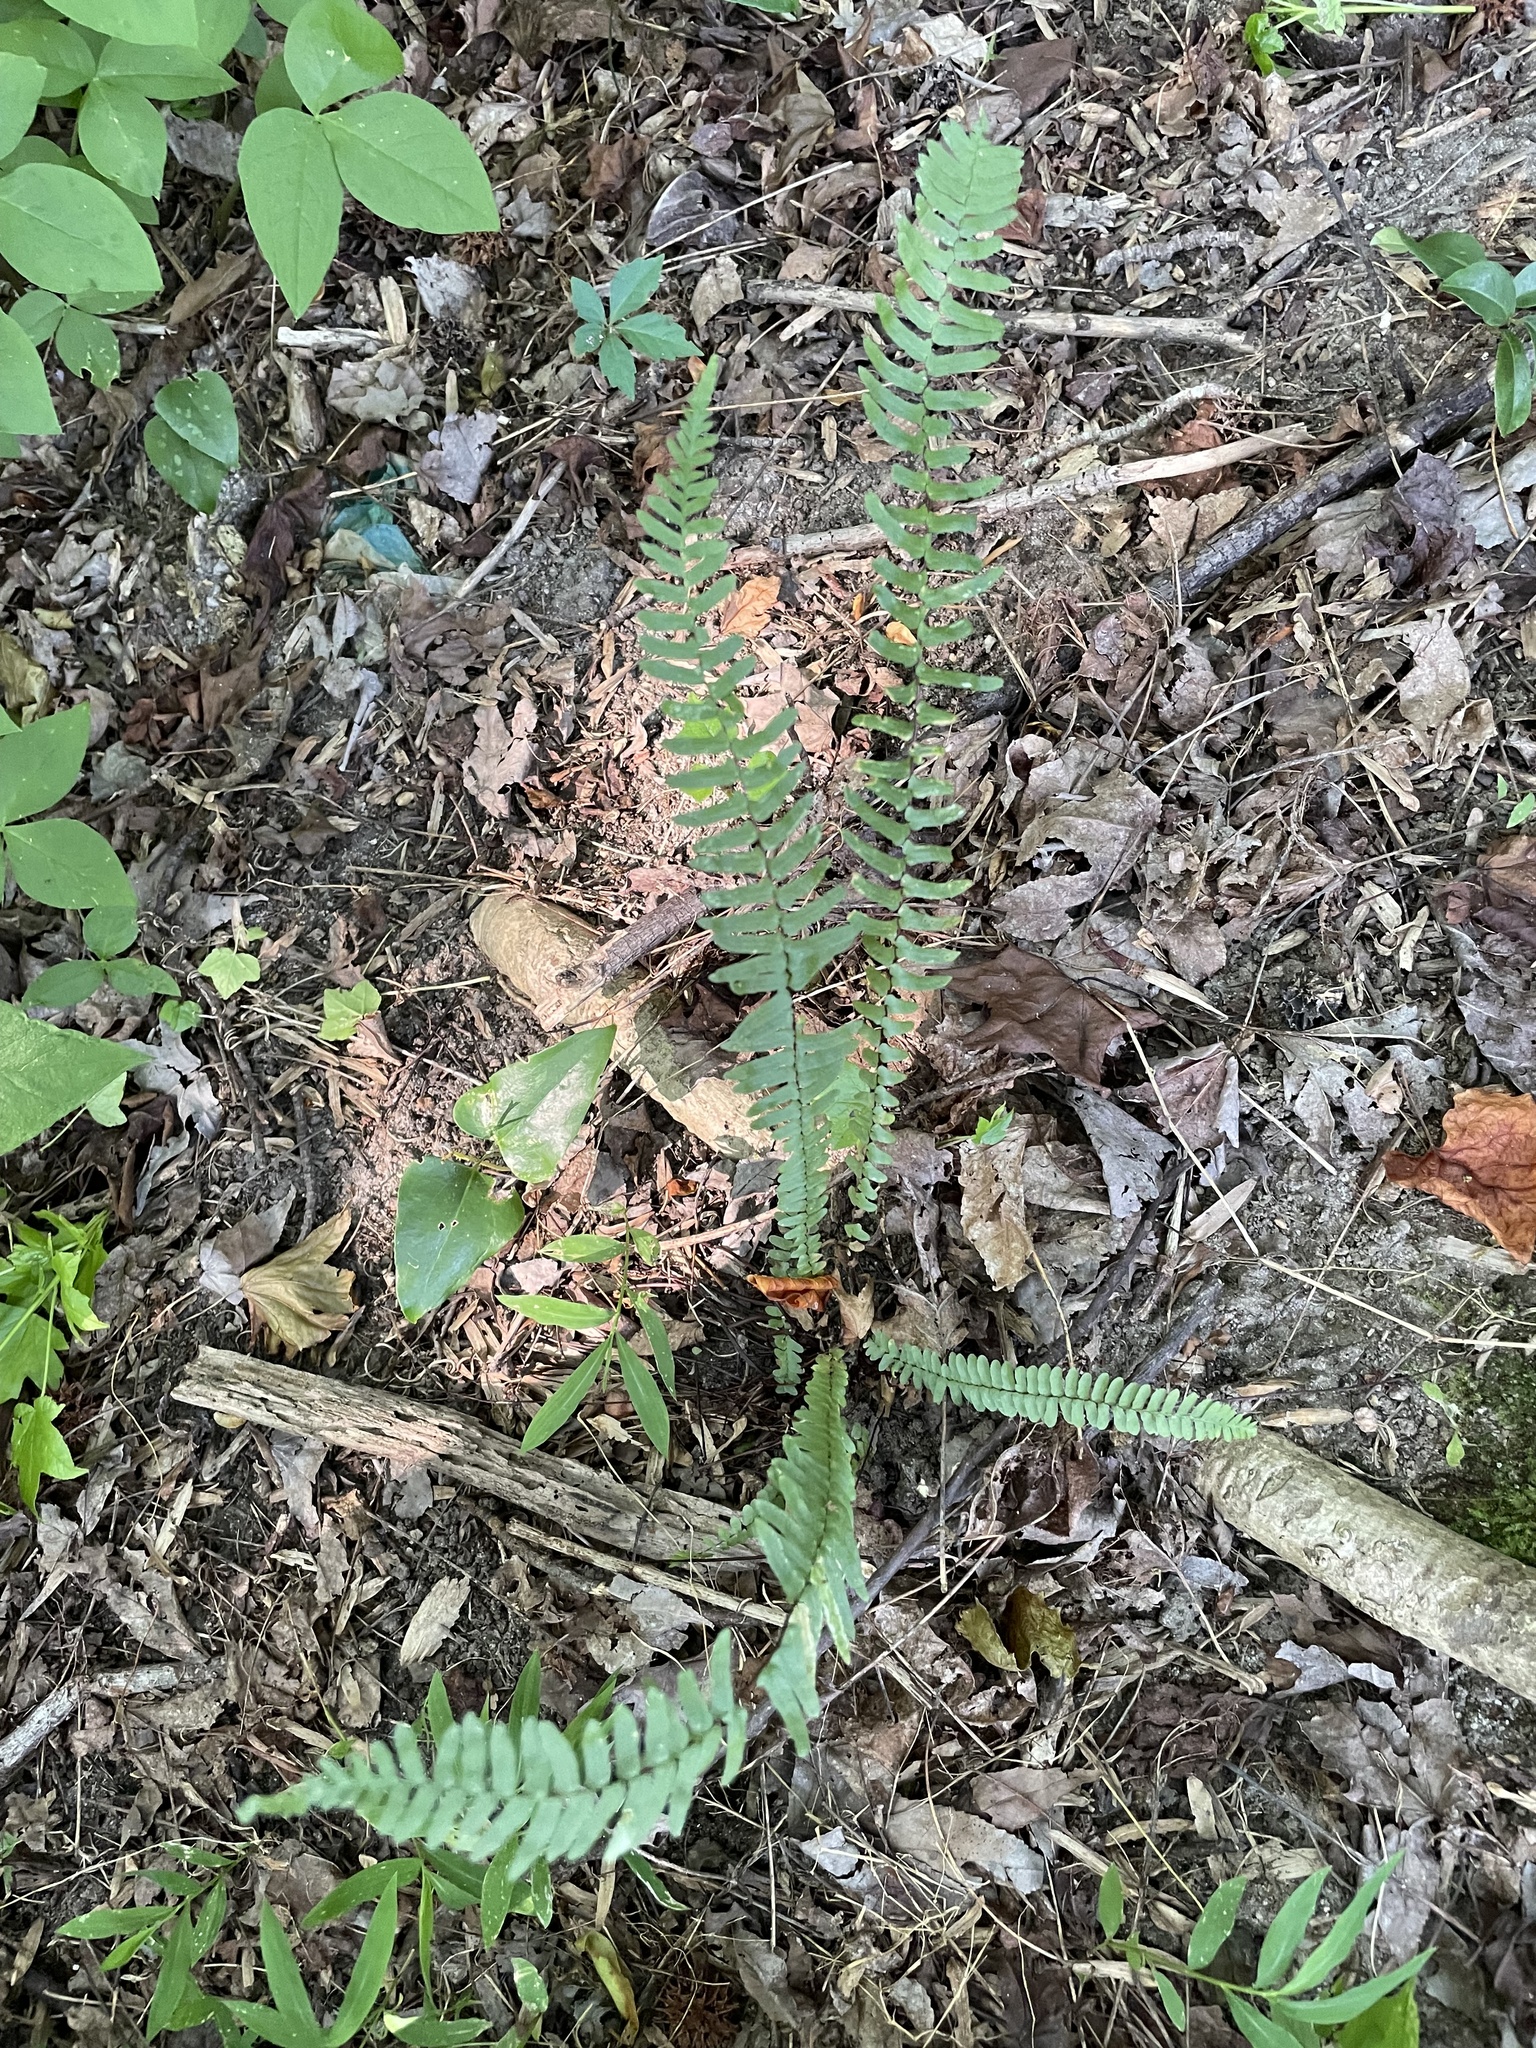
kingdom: Plantae
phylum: Tracheophyta
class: Polypodiopsida
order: Polypodiales
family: Aspleniaceae
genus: Asplenium
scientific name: Asplenium platyneuron
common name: Ebony spleenwort
